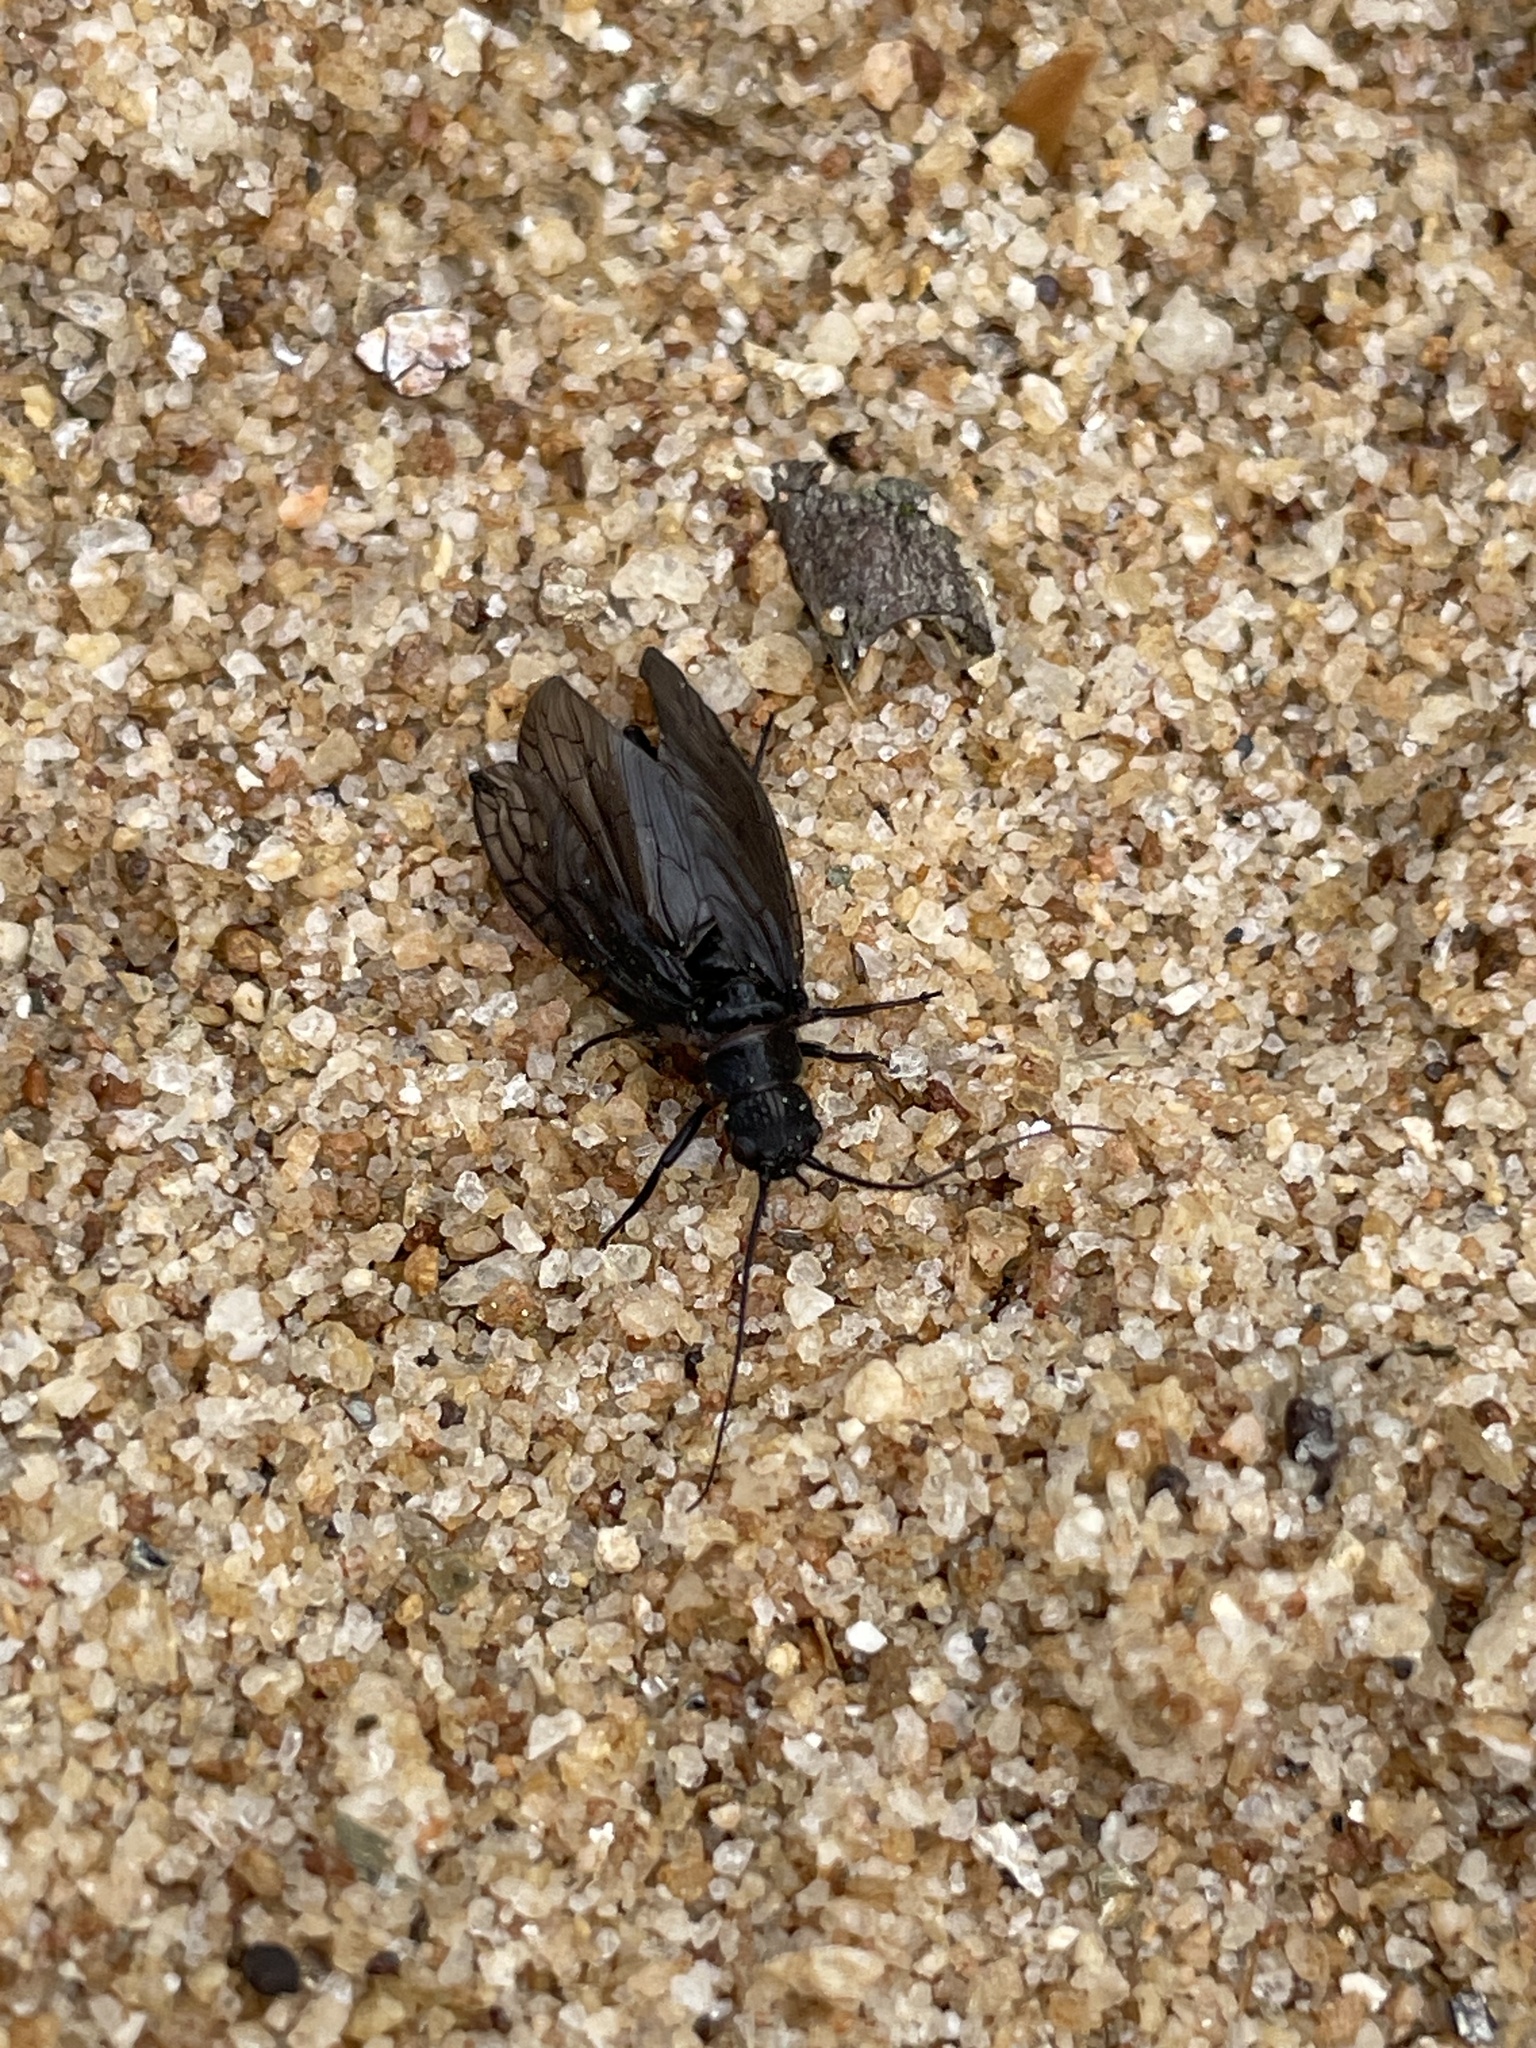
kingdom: Animalia
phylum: Arthropoda
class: Insecta
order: Megaloptera
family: Sialidae
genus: Sialis
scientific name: Sialis
